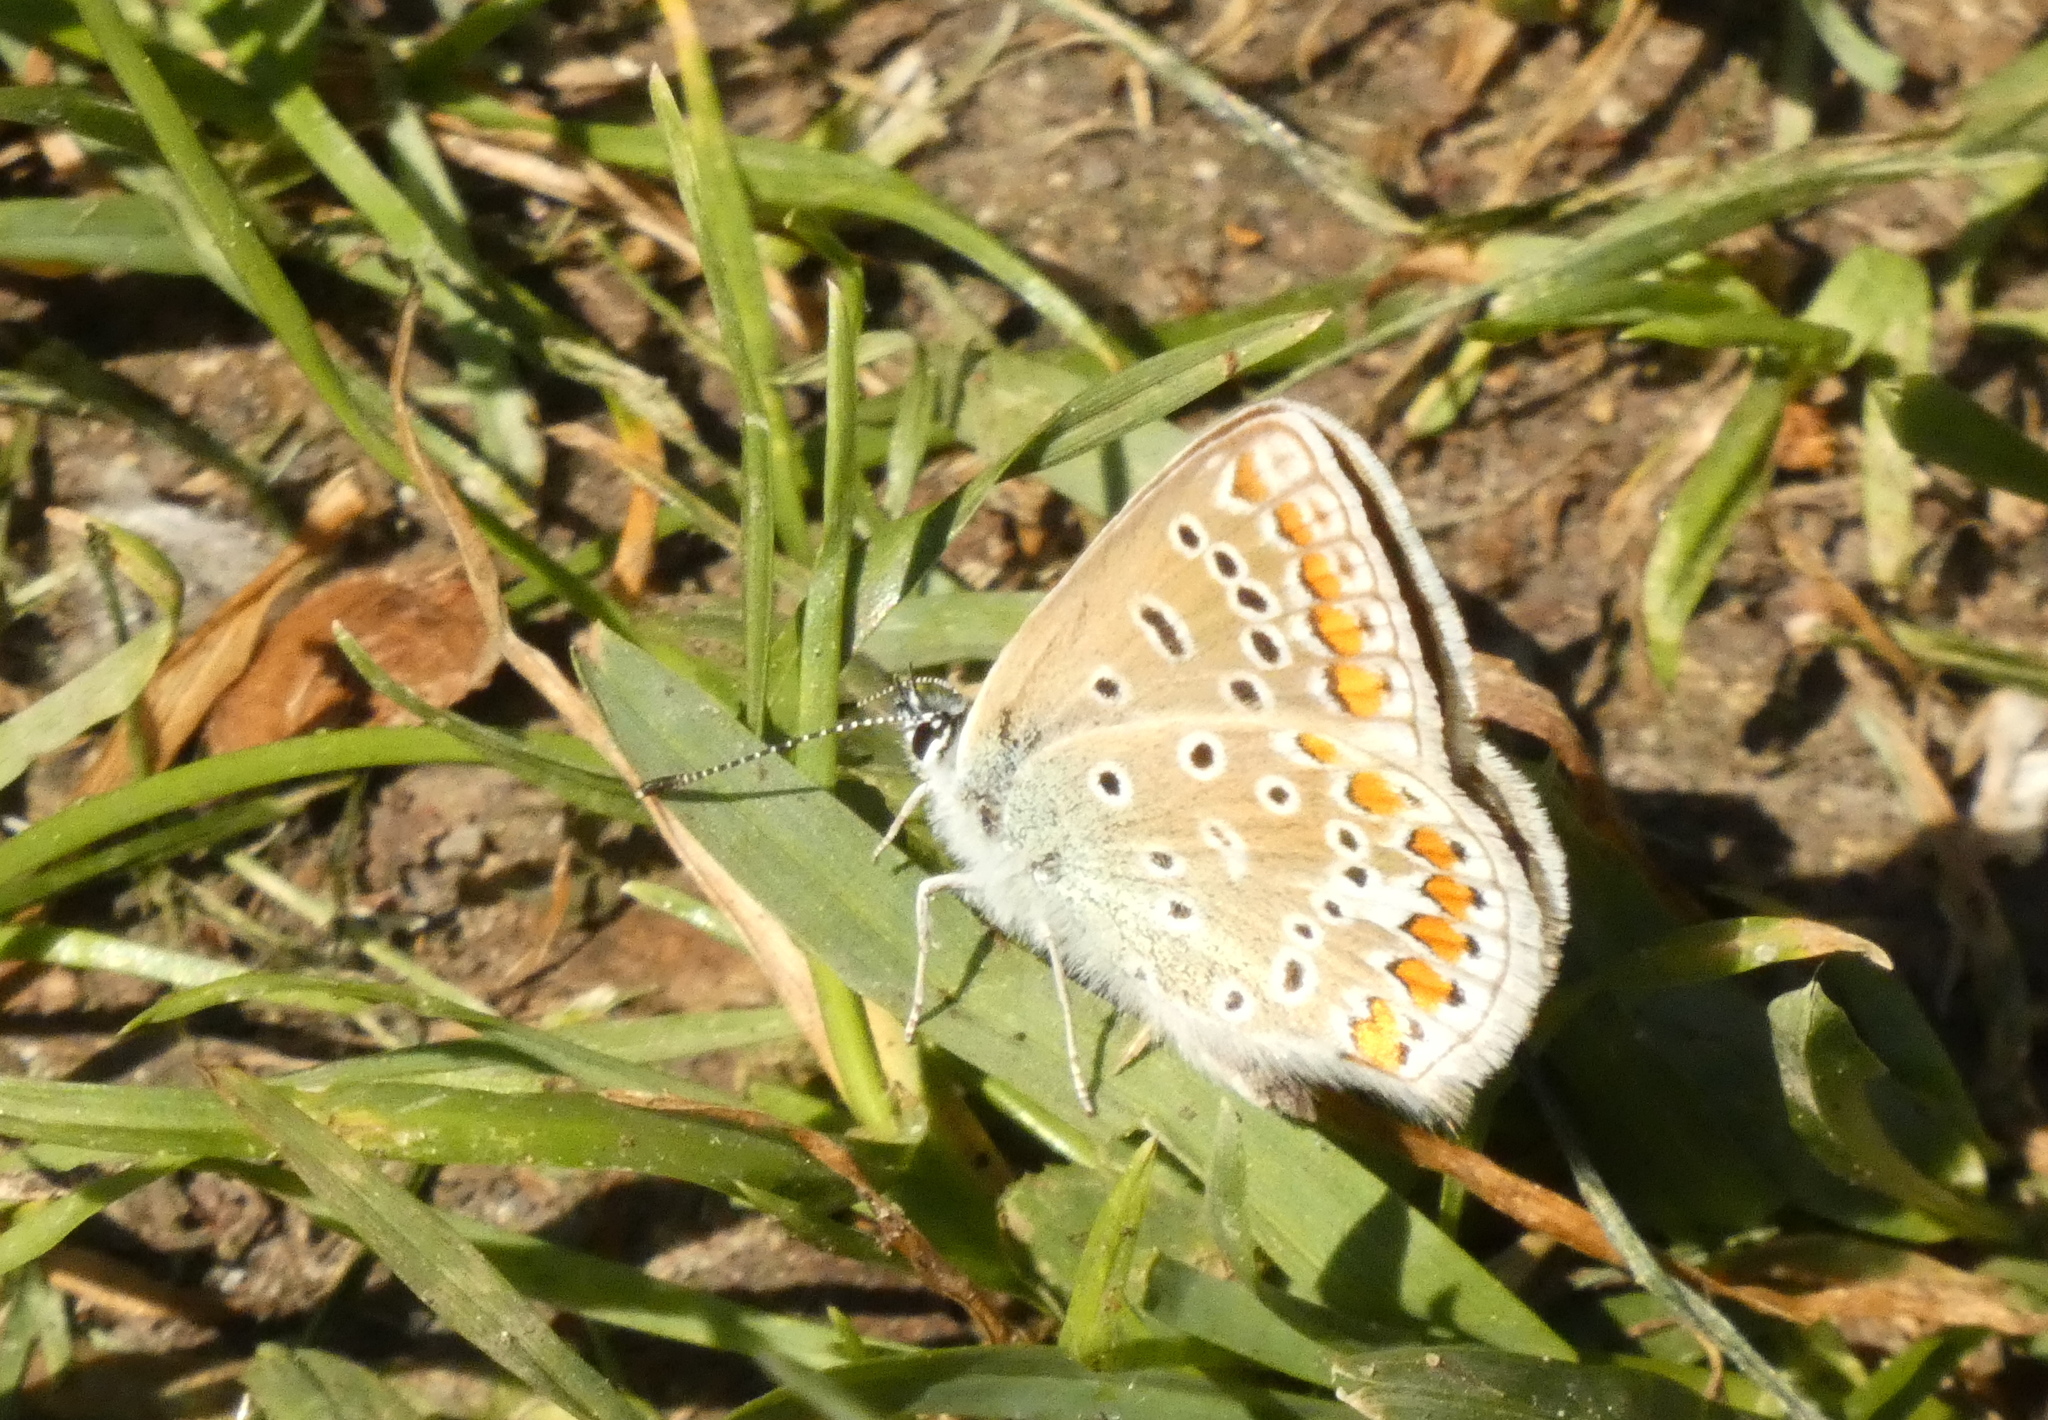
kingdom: Animalia
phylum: Arthropoda
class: Insecta
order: Lepidoptera
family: Lycaenidae
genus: Polyommatus
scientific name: Polyommatus icarus
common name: Common blue
